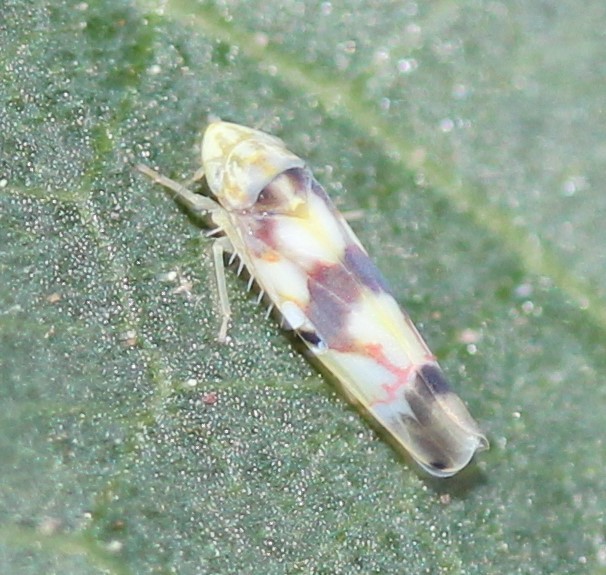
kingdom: Animalia
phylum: Arthropoda
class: Insecta
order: Hemiptera
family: Cicadellidae
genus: Erythroneura
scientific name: Erythroneura anfracta
